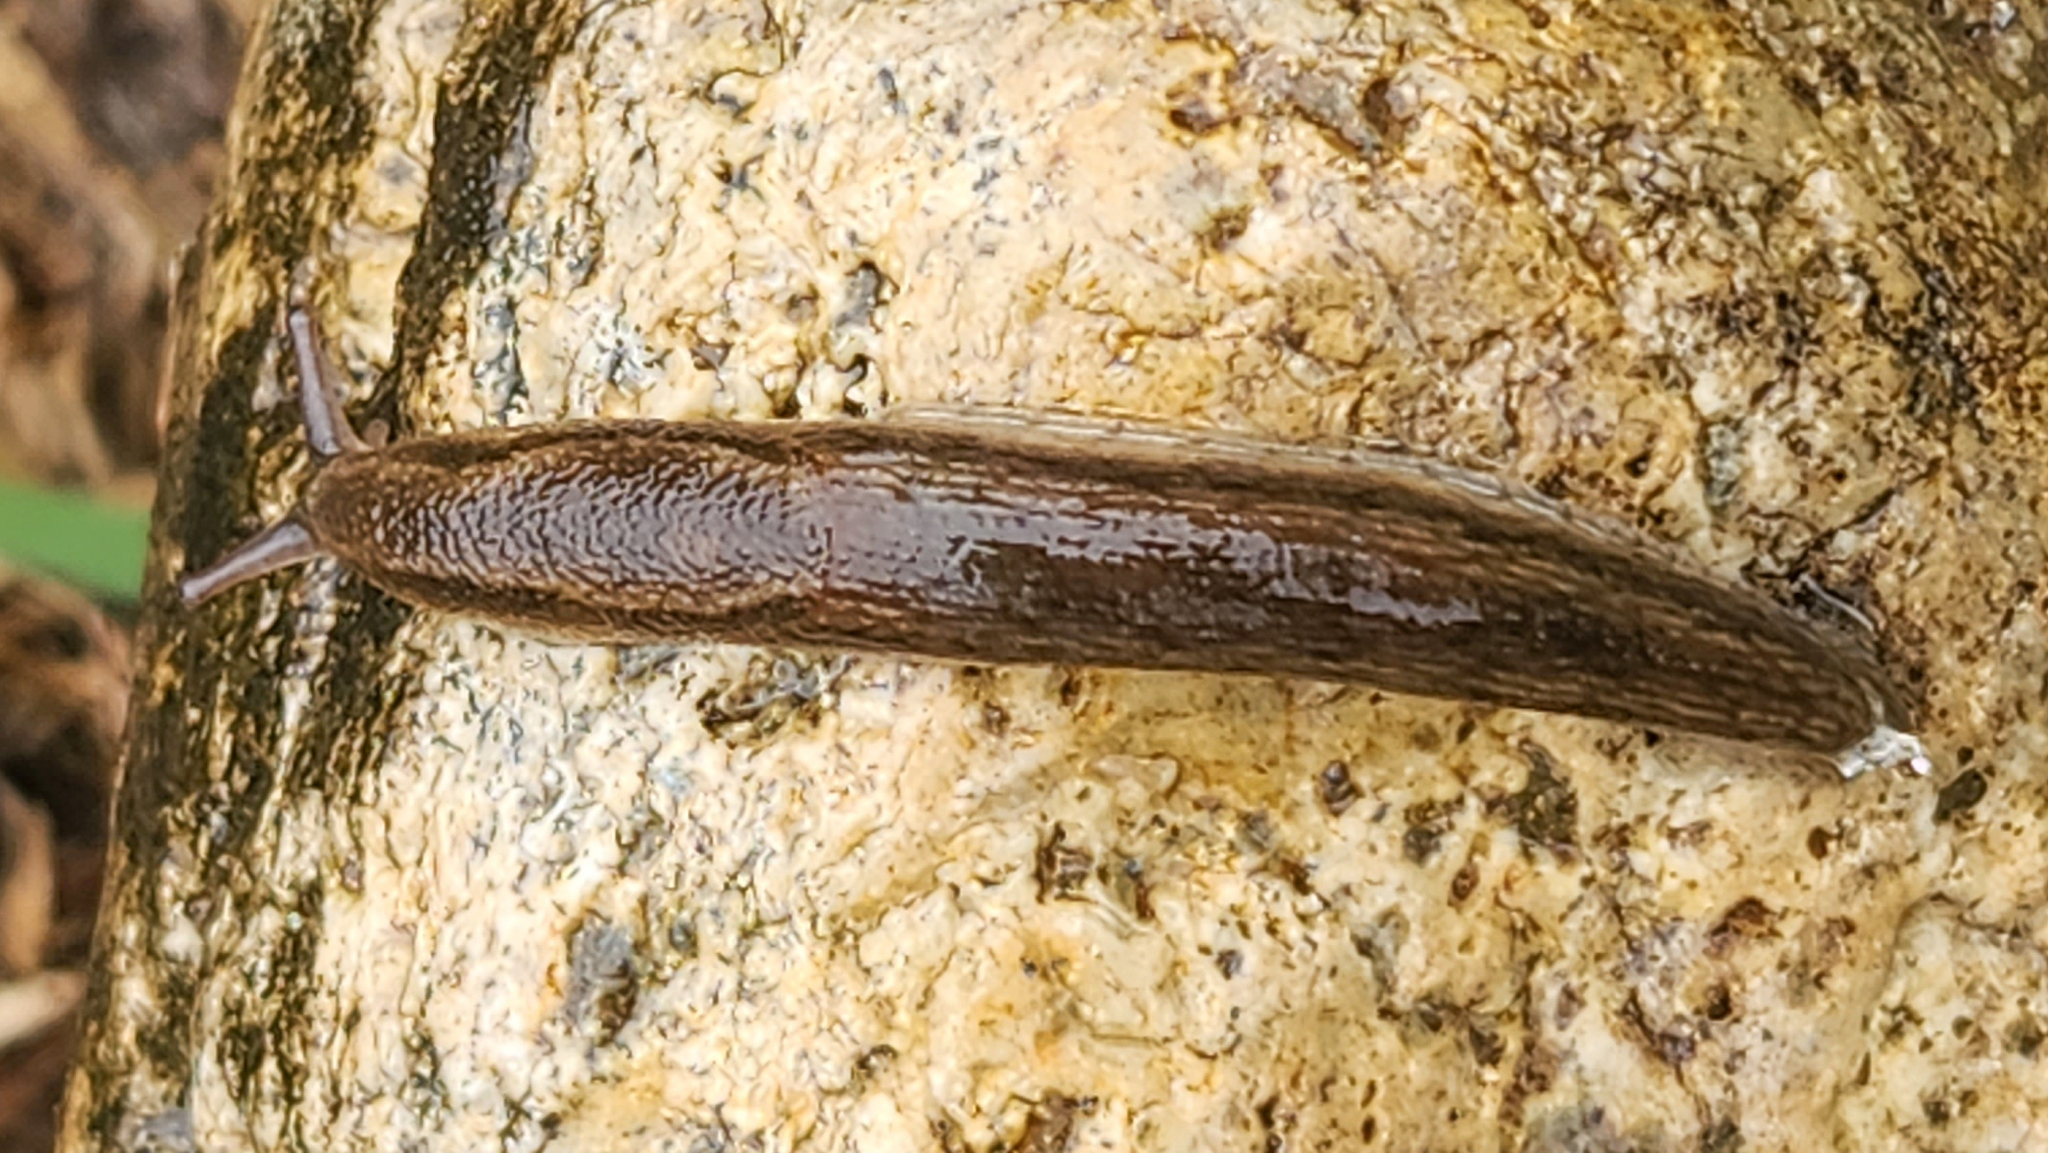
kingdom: Animalia
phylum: Mollusca
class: Gastropoda
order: Stylommatophora
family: Arionidae
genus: Mesarion
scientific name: Mesarion
